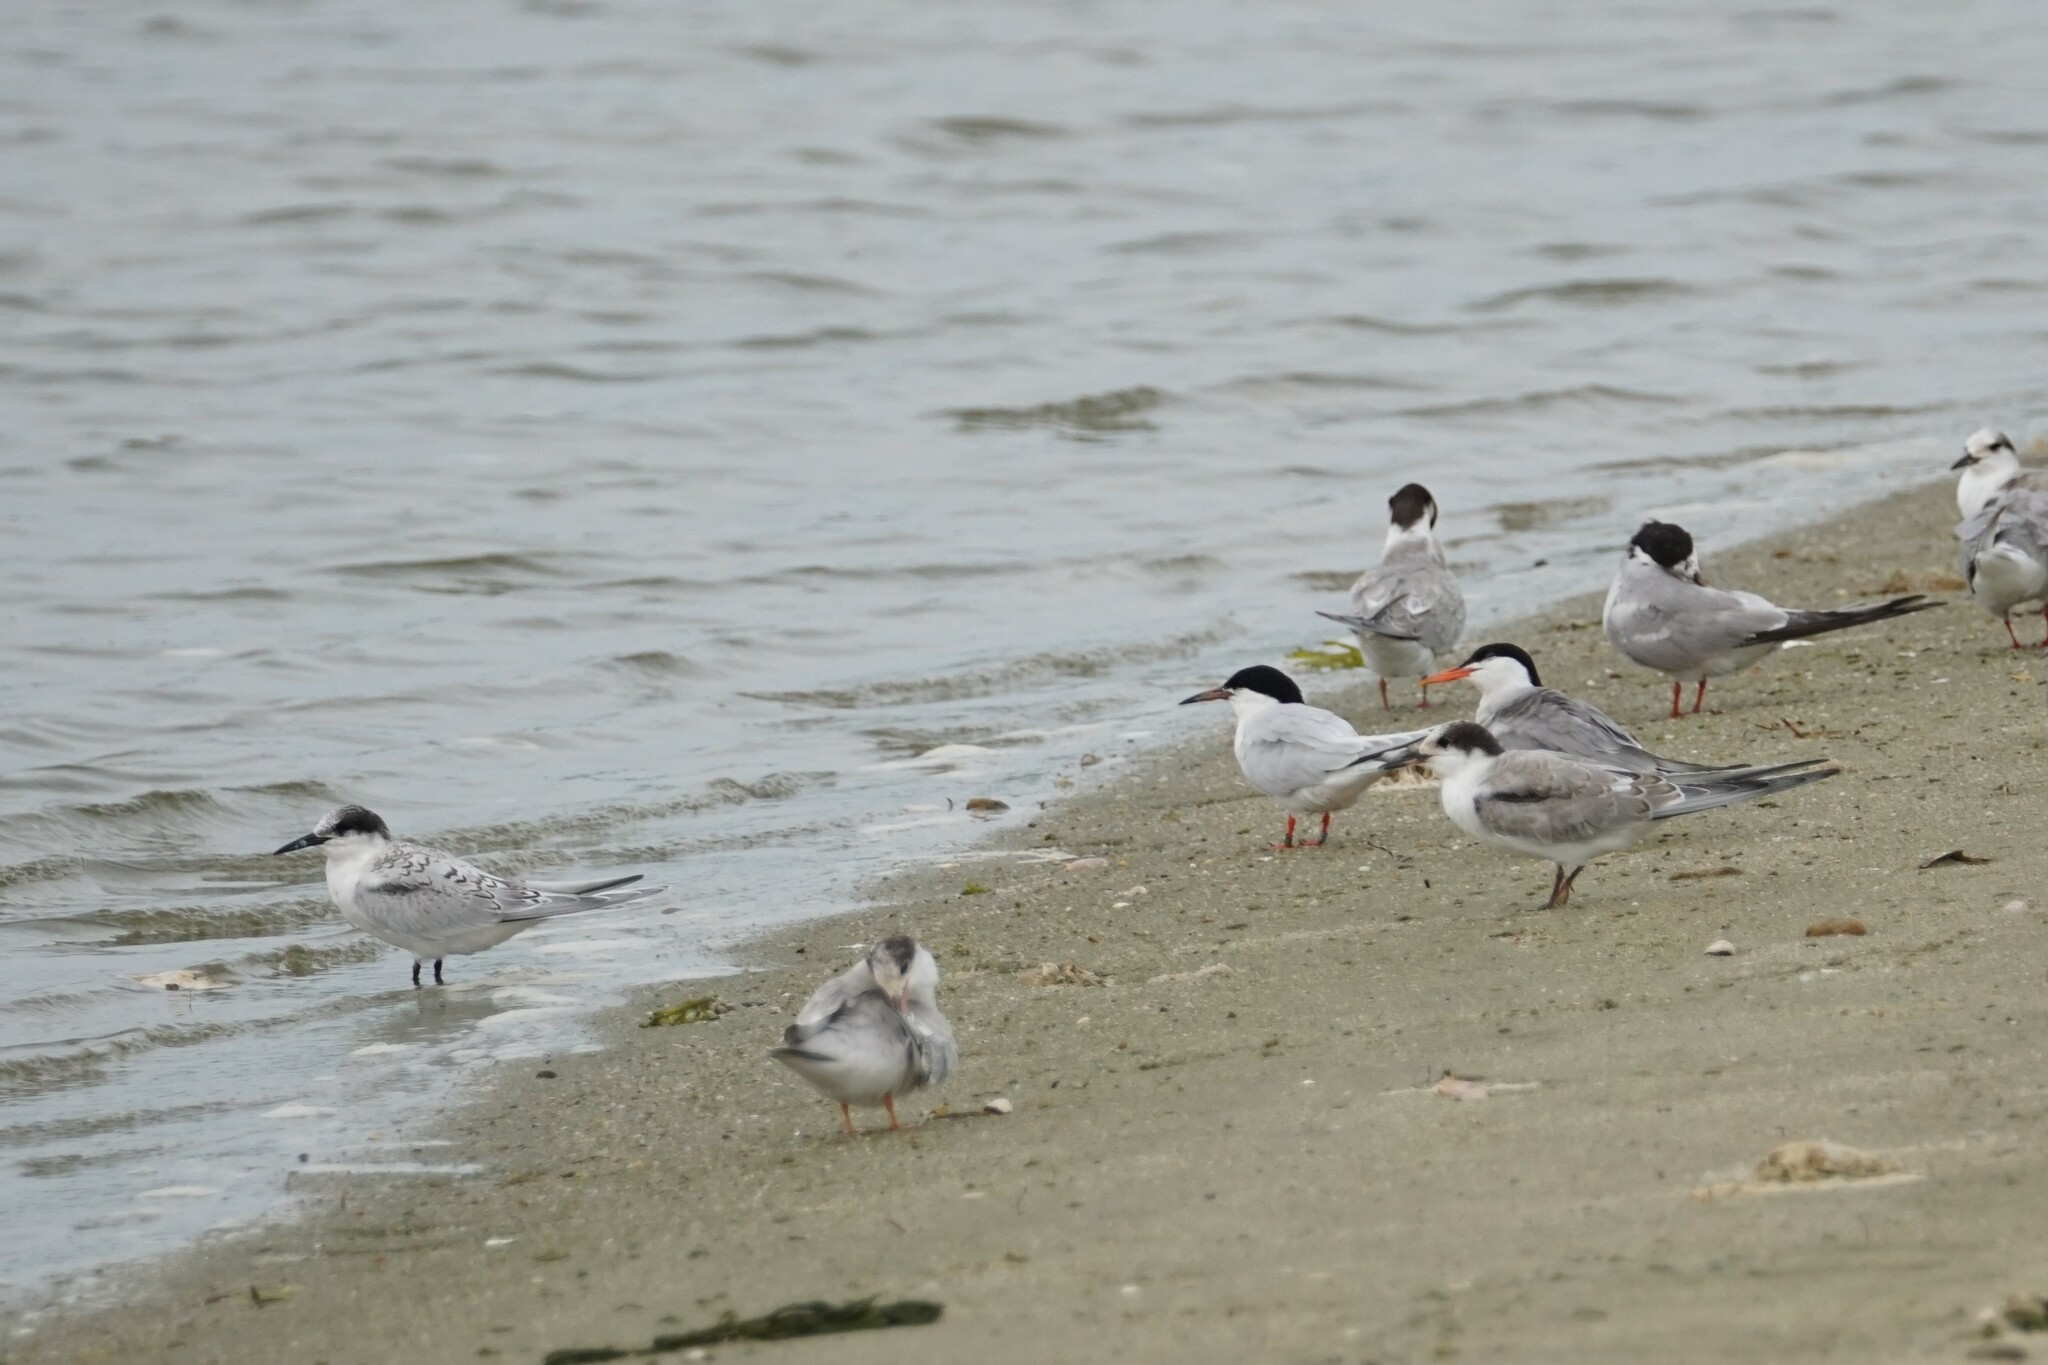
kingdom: Animalia
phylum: Chordata
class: Aves
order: Charadriiformes
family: Laridae
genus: Sterna
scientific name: Sterna dougallii
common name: Roseate tern
